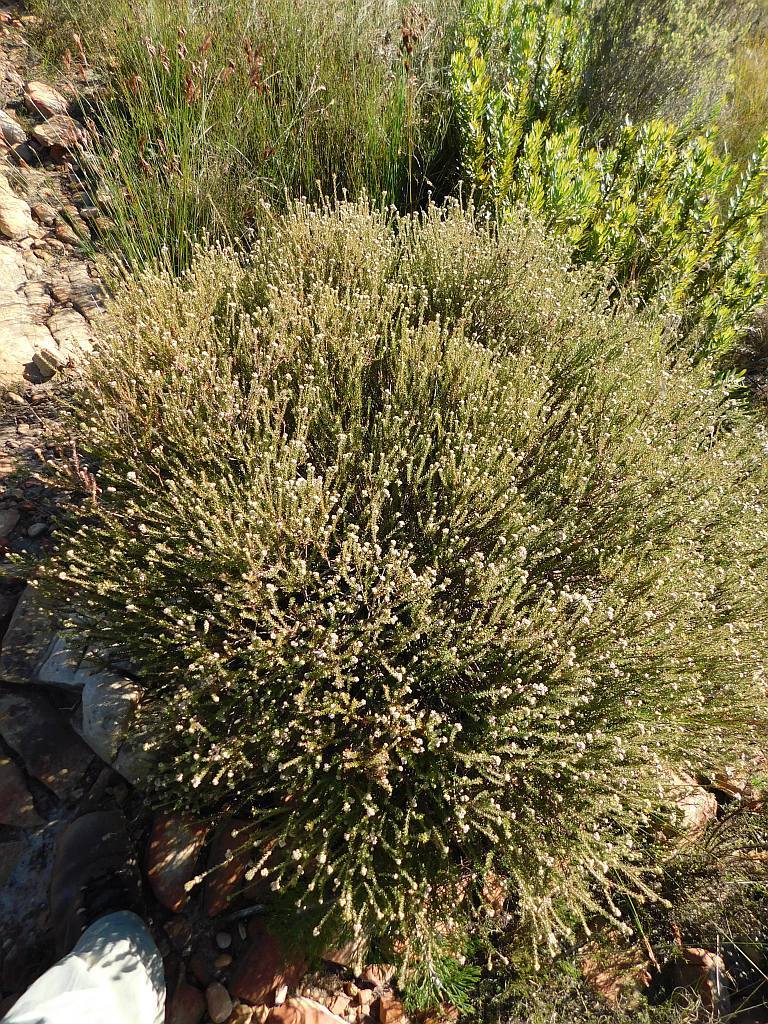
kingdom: Plantae
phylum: Tracheophyta
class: Magnoliopsida
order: Bruniales
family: Bruniaceae
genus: Staavia
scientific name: Staavia capitella
